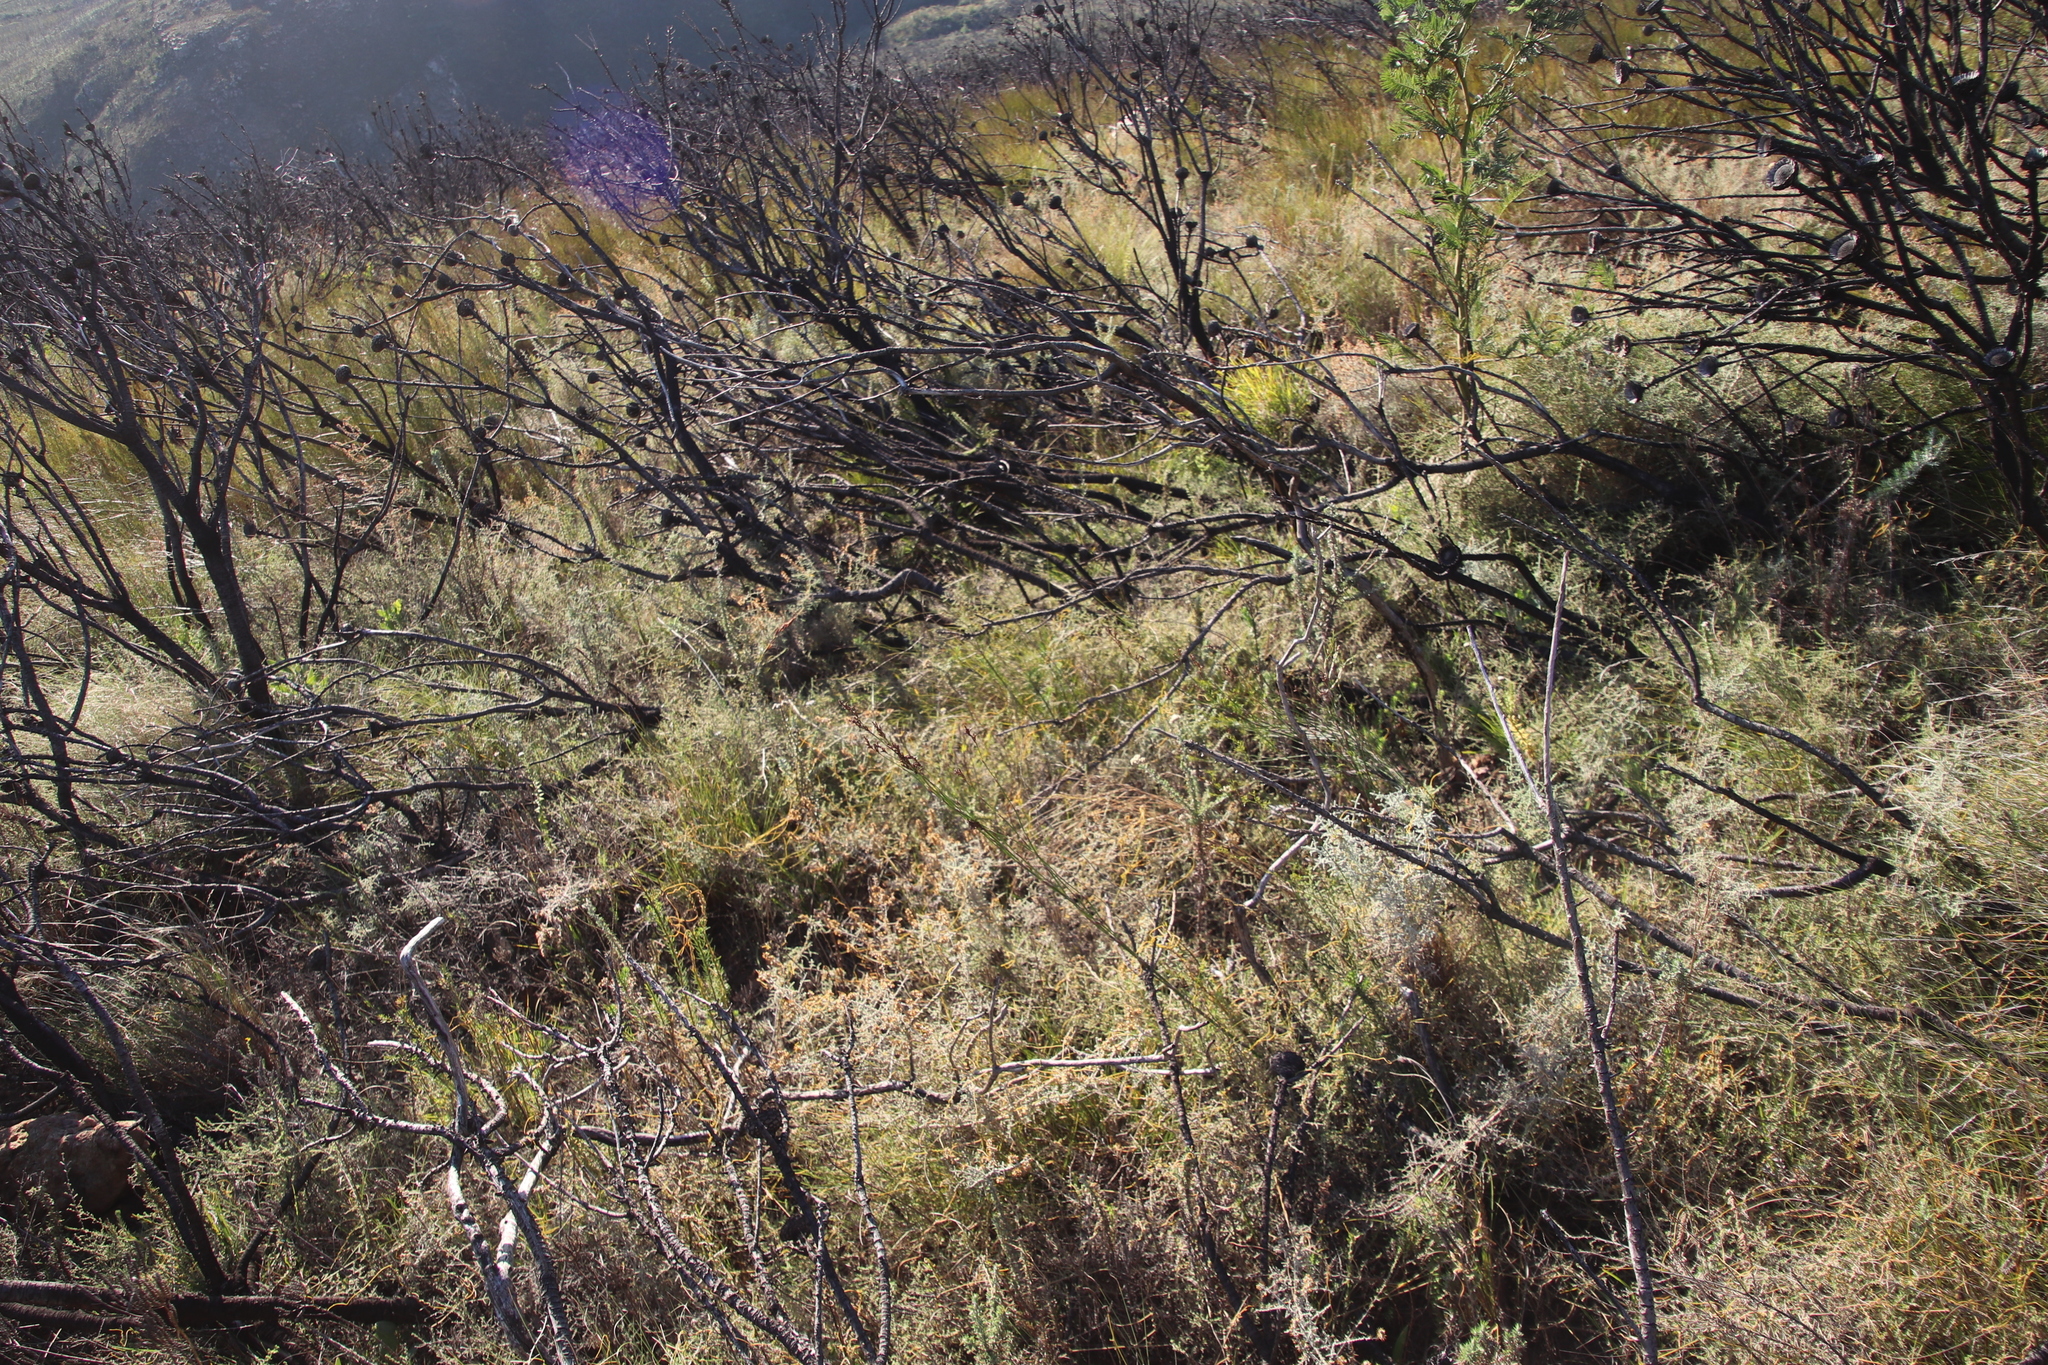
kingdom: Plantae
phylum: Tracheophyta
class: Magnoliopsida
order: Laurales
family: Lauraceae
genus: Cassytha
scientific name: Cassytha ciliolata
